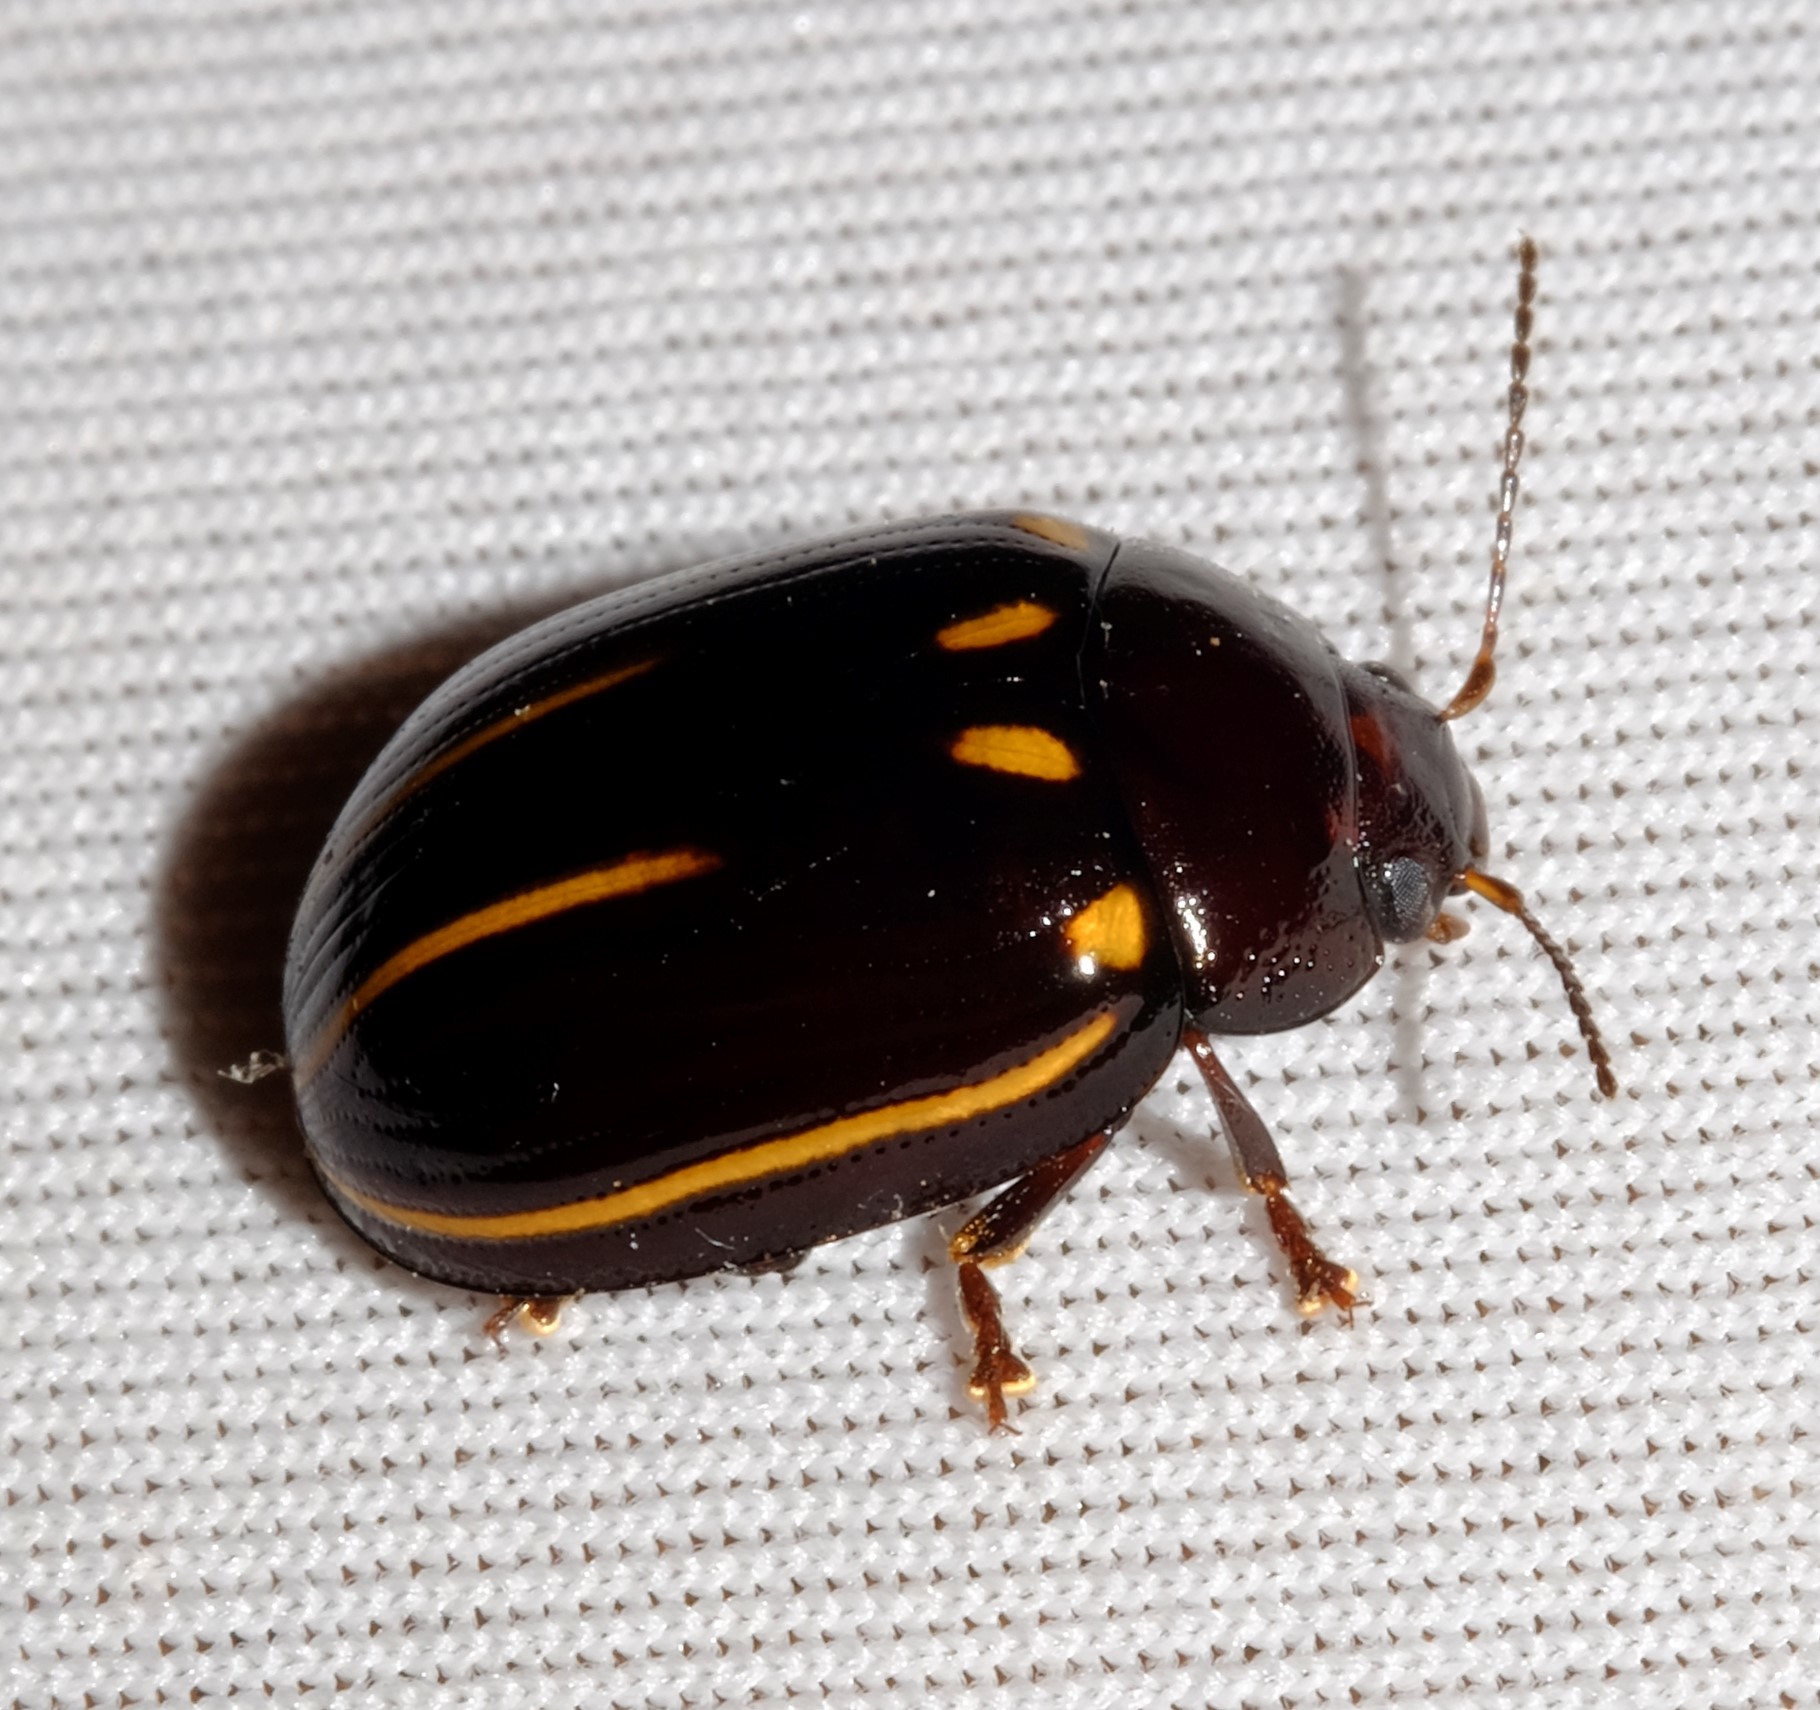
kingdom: Animalia
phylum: Arthropoda
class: Insecta
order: Coleoptera
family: Chrysomelidae
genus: Paropsisterna
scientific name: Paropsisterna
